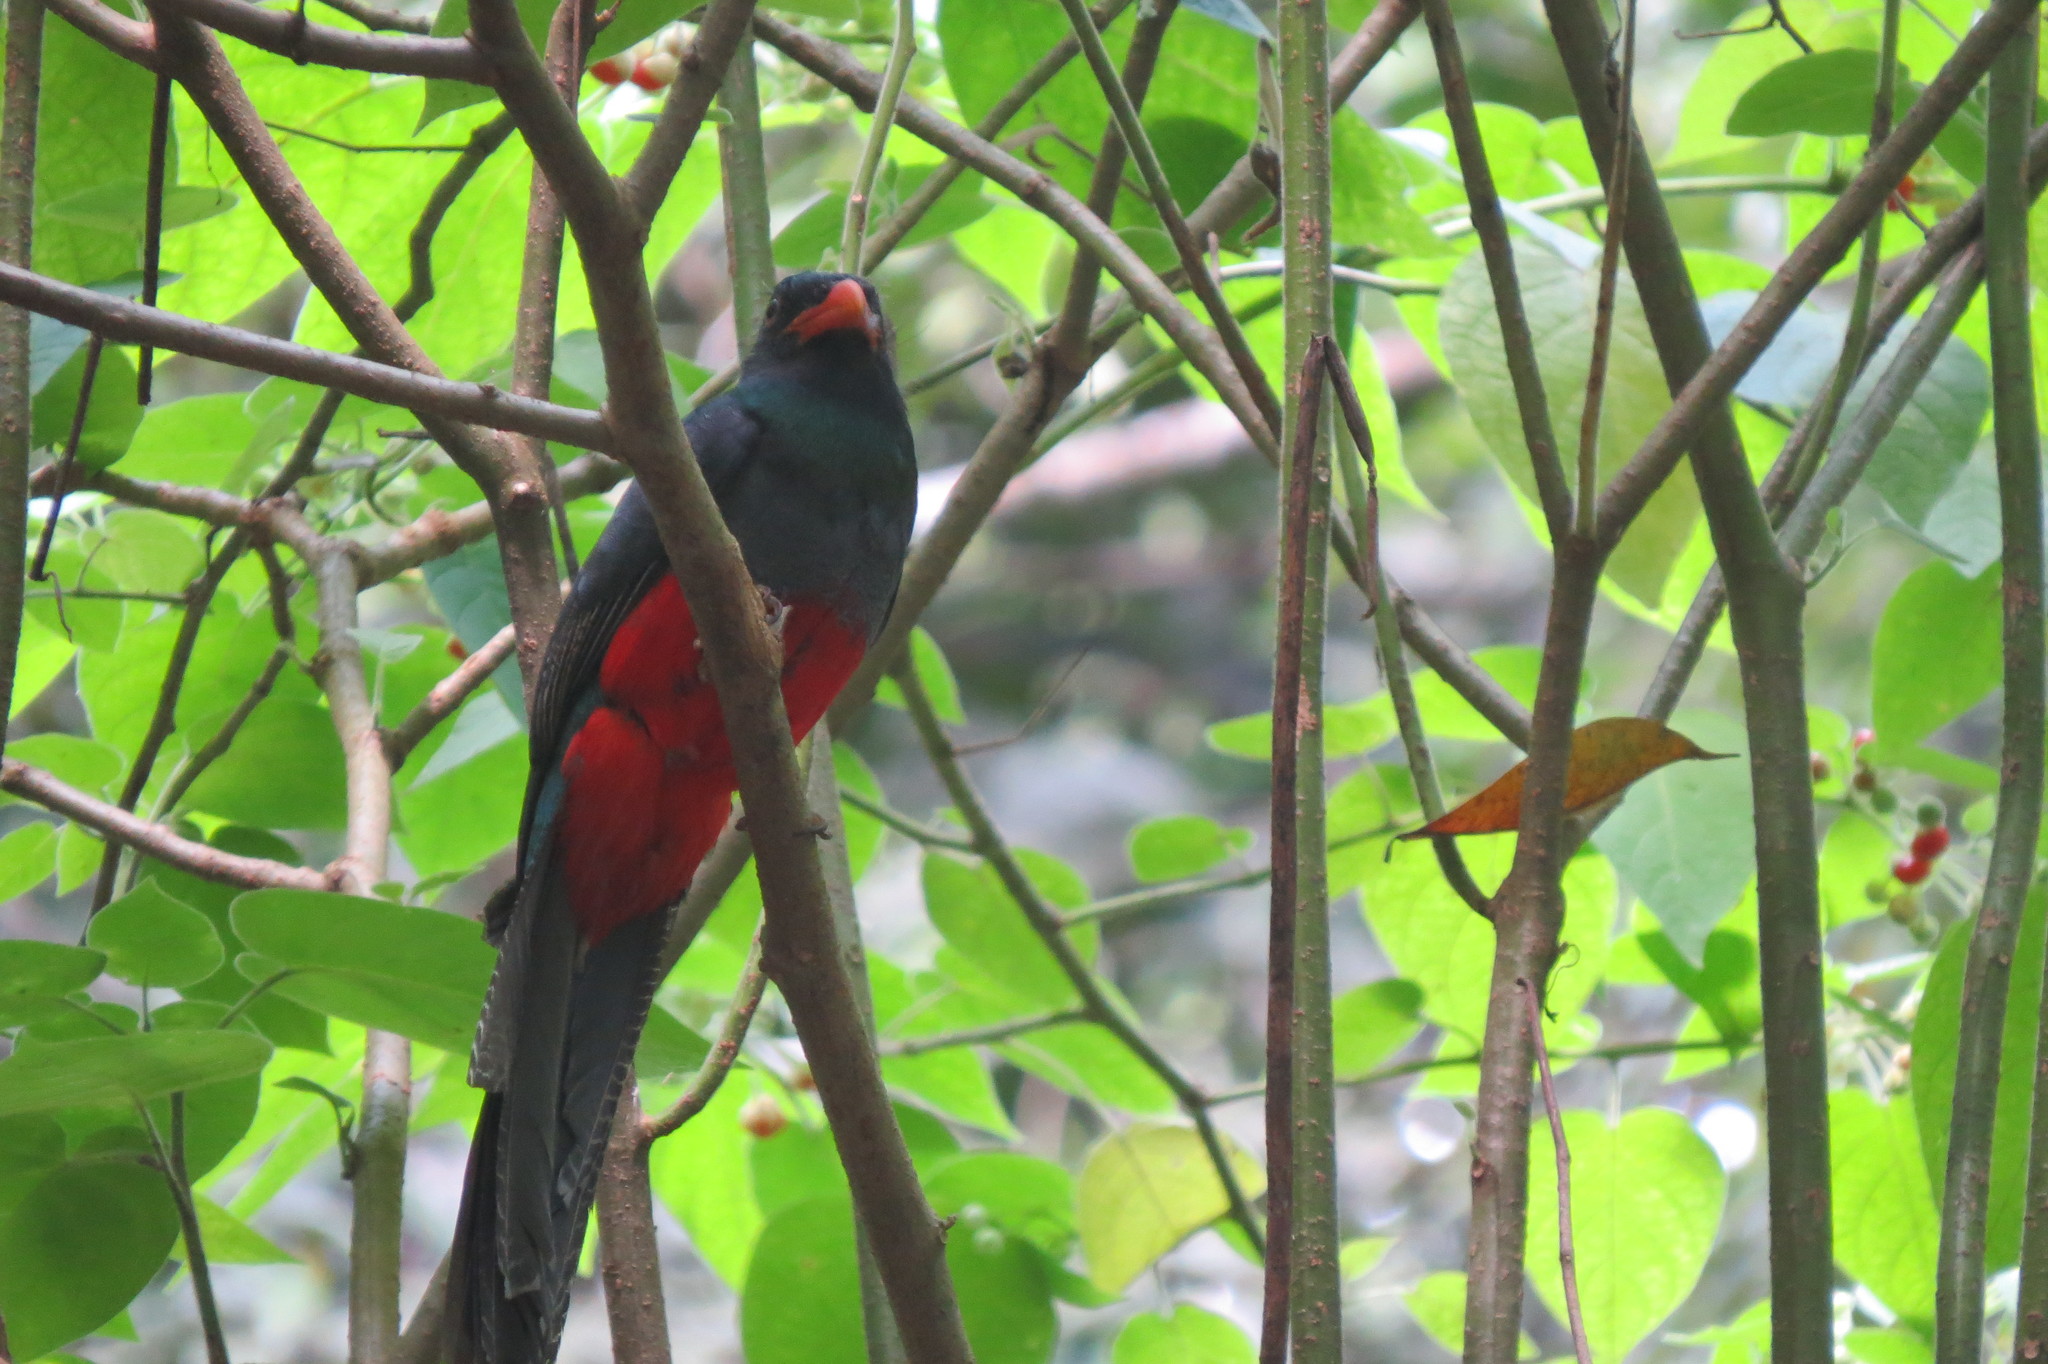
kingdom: Animalia
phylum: Chordata
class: Aves
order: Trogoniformes
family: Trogonidae
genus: Trogon
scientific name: Trogon massena
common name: Slaty-tailed trogon
